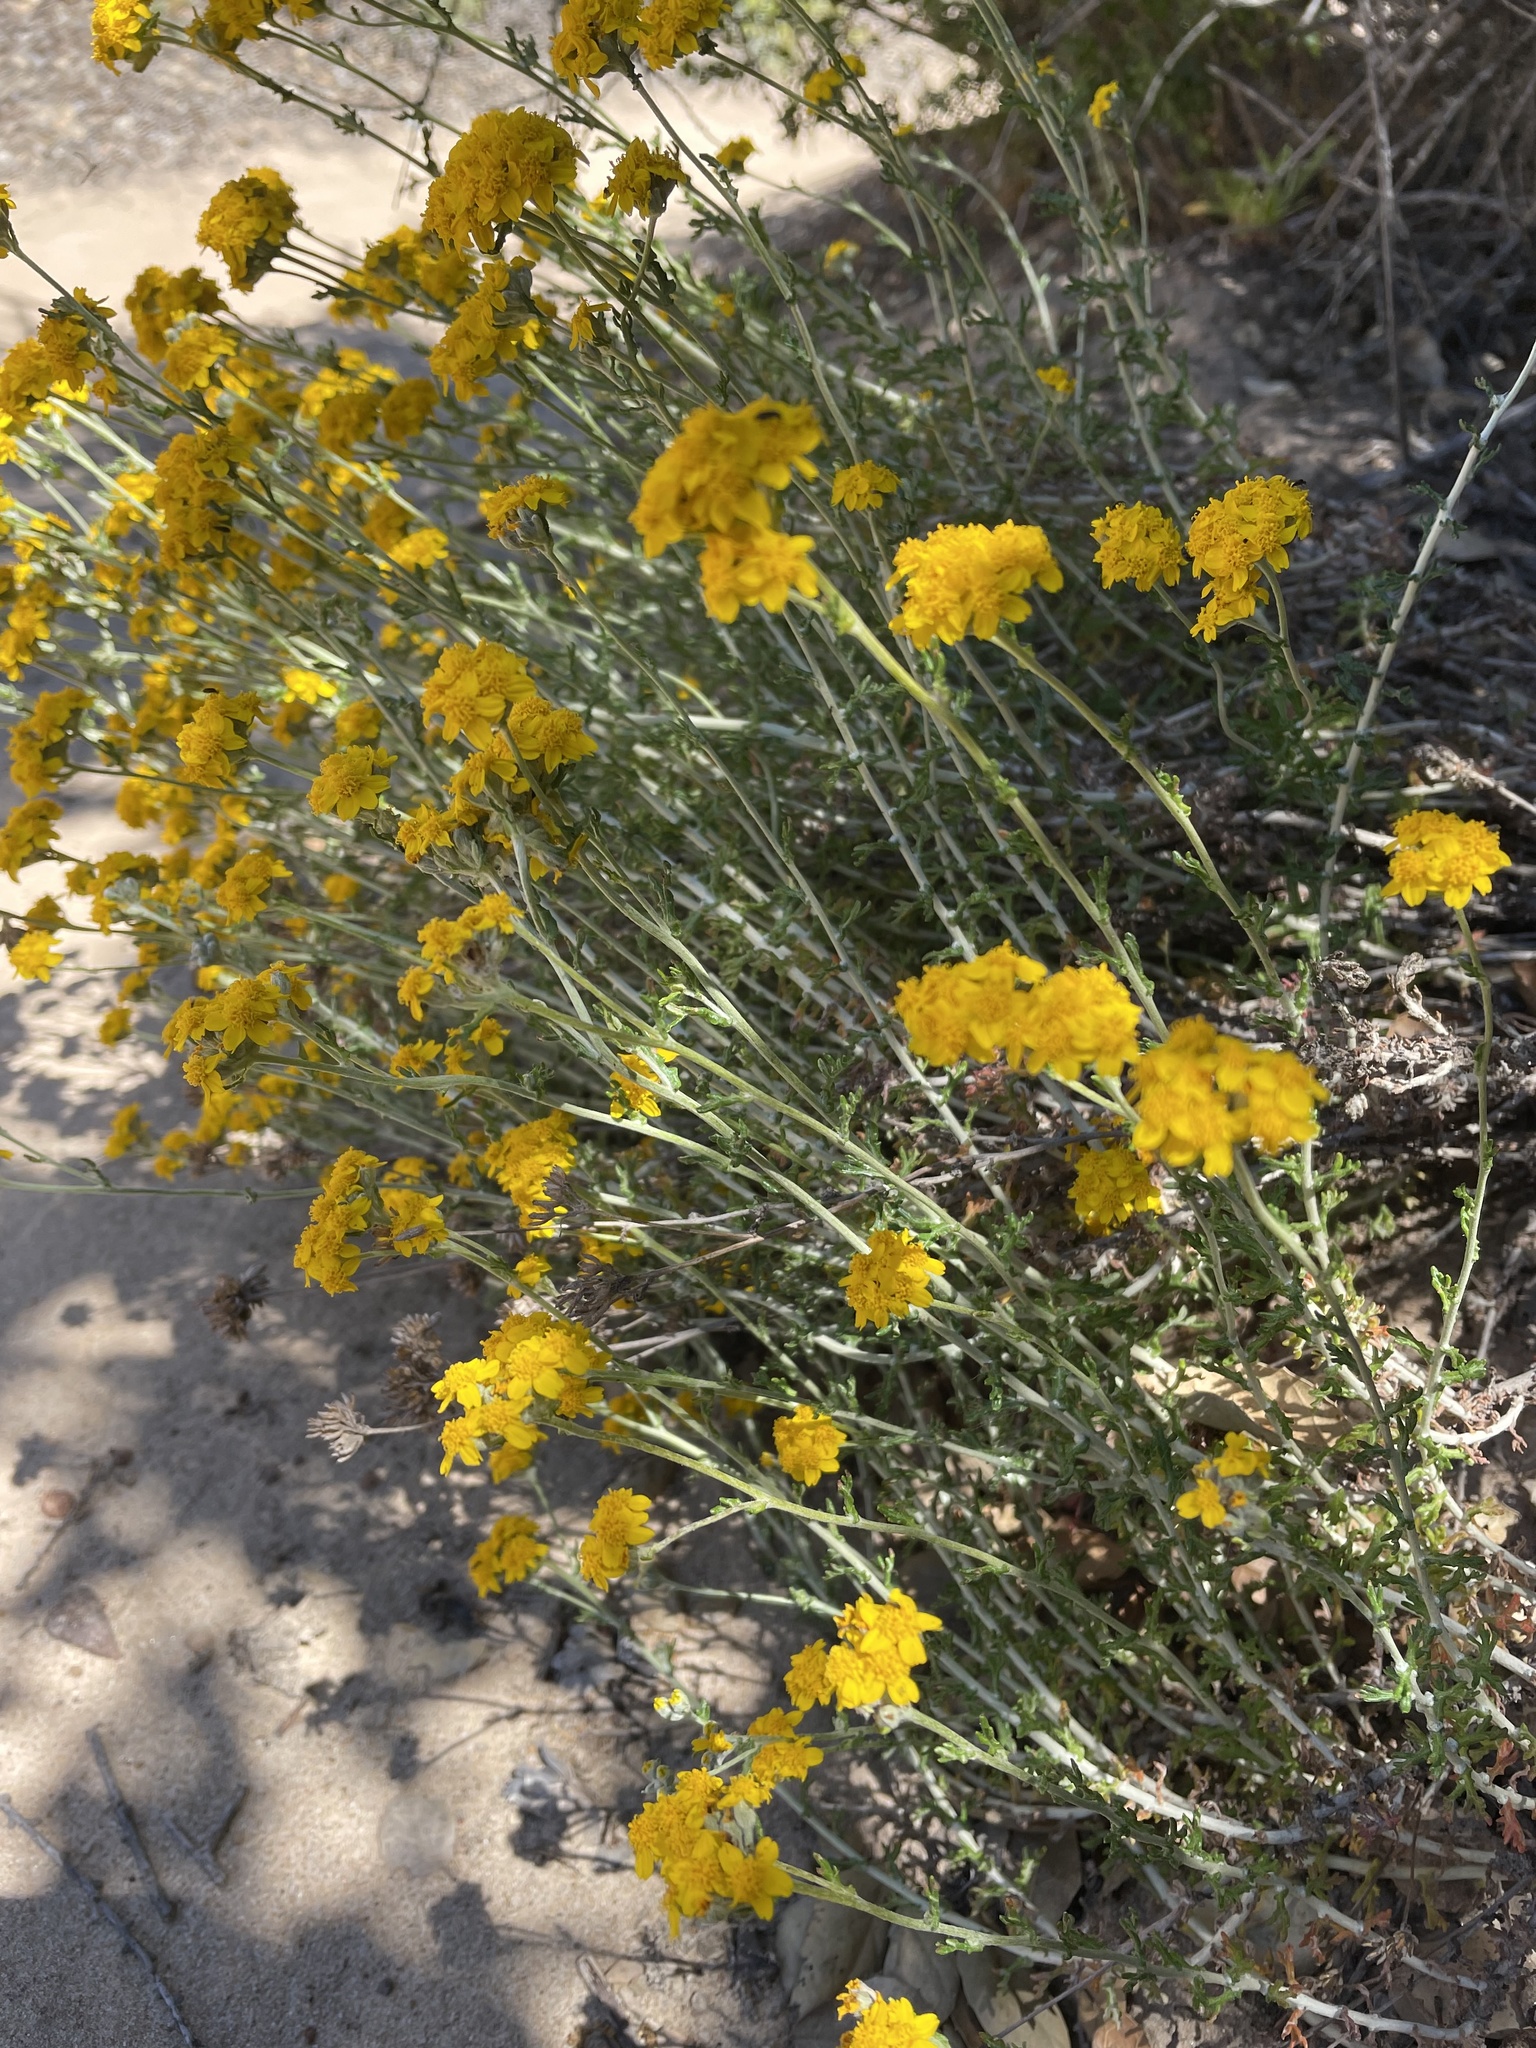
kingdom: Plantae
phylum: Tracheophyta
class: Magnoliopsida
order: Asterales
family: Asteraceae
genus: Eriophyllum
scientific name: Eriophyllum confertiflorum
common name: Golden-yarrow
